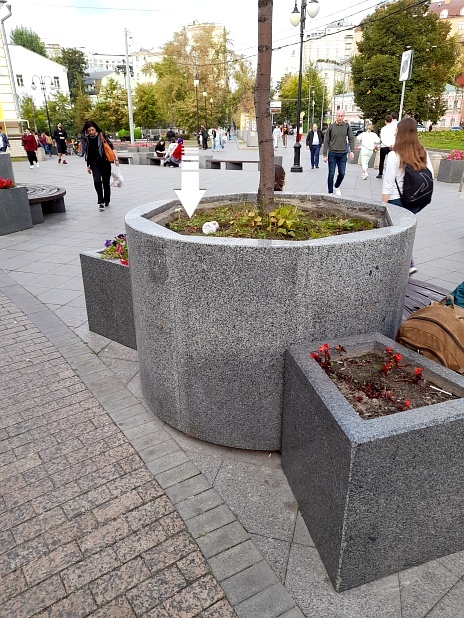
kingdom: Plantae
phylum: Tracheophyta
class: Magnoliopsida
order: Fabales
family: Fabaceae
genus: Medicago
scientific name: Medicago lupulina
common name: Black medick
